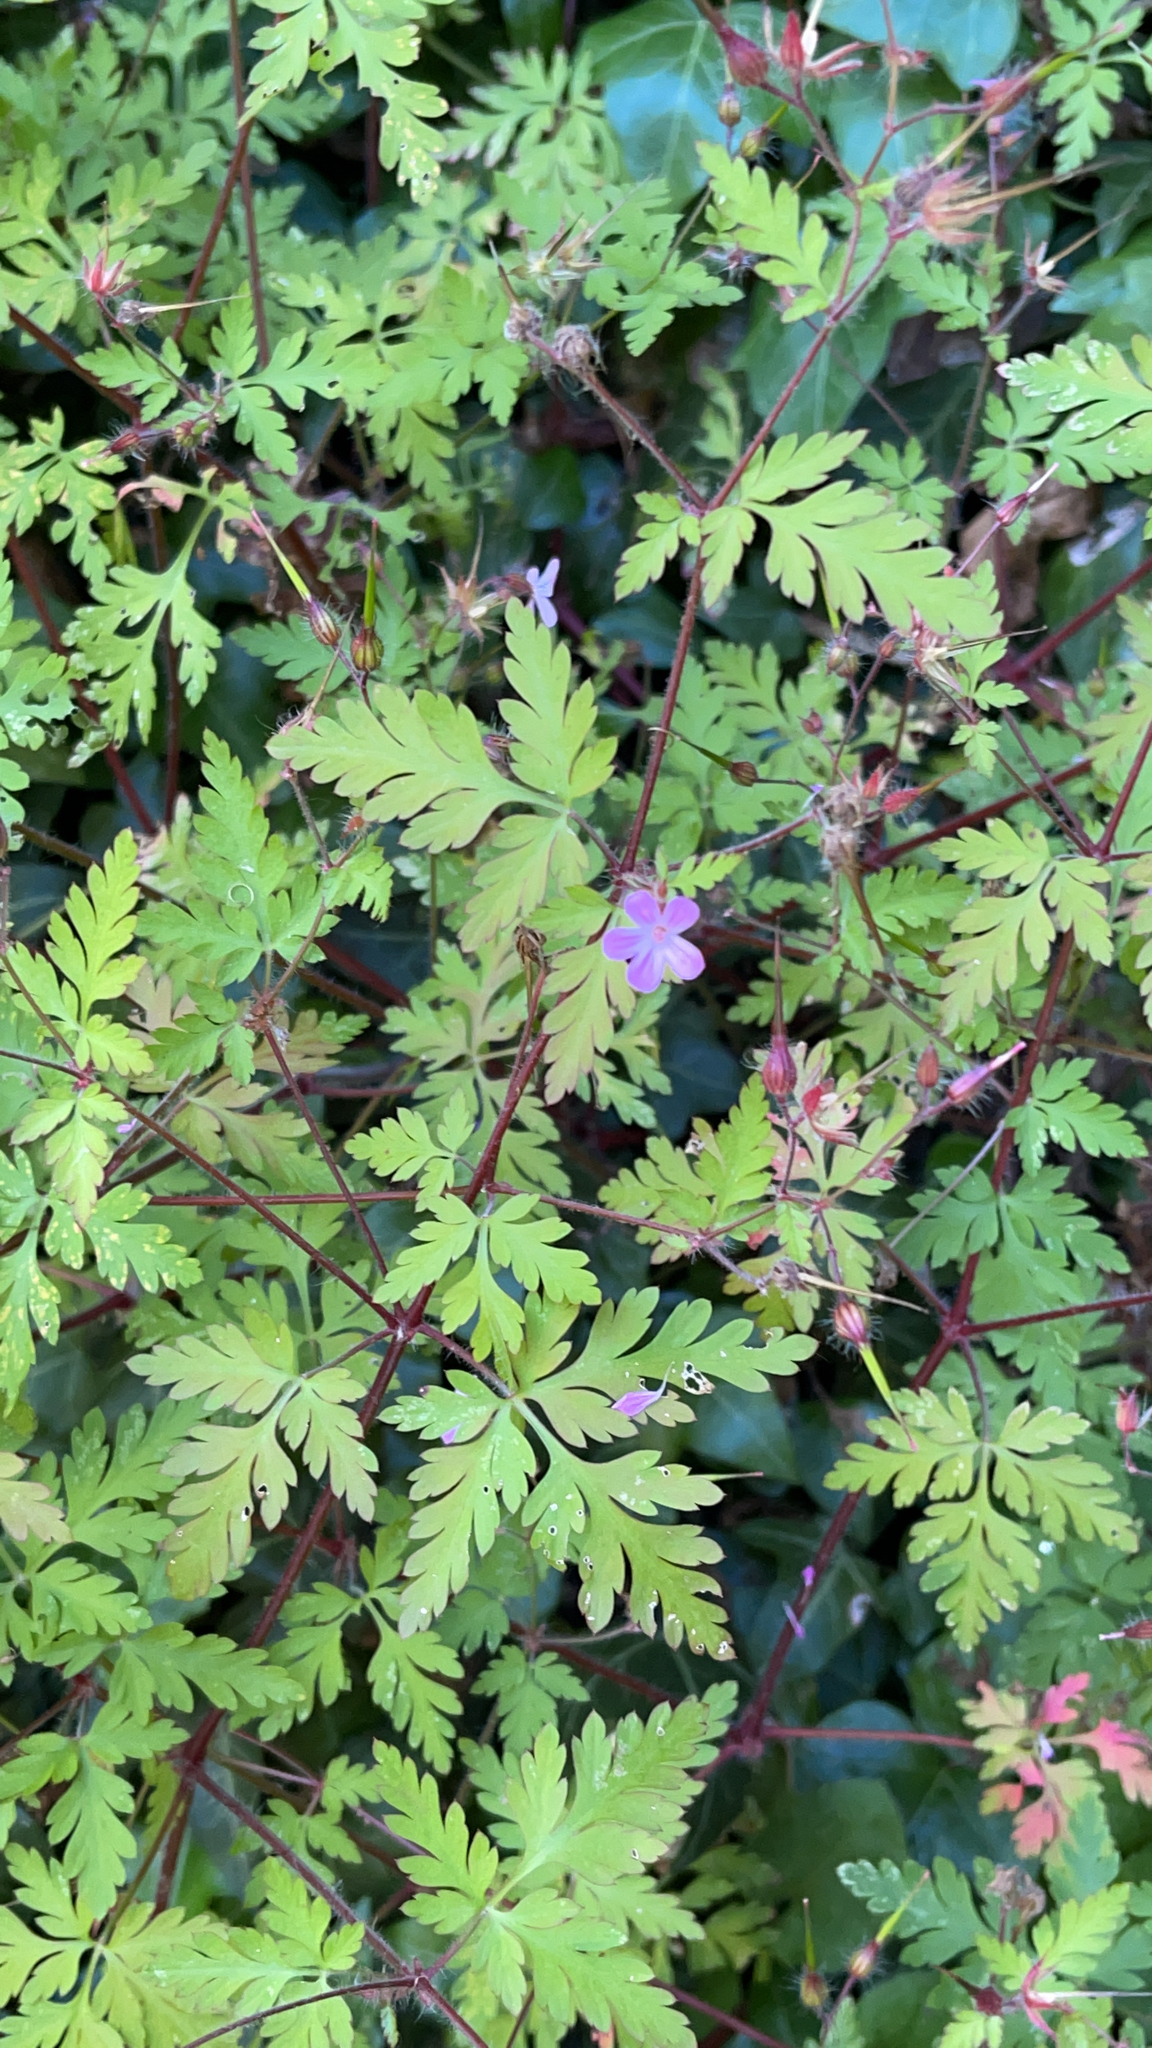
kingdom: Plantae
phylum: Tracheophyta
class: Magnoliopsida
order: Geraniales
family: Geraniaceae
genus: Geranium
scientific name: Geranium robertianum
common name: Herb-robert
